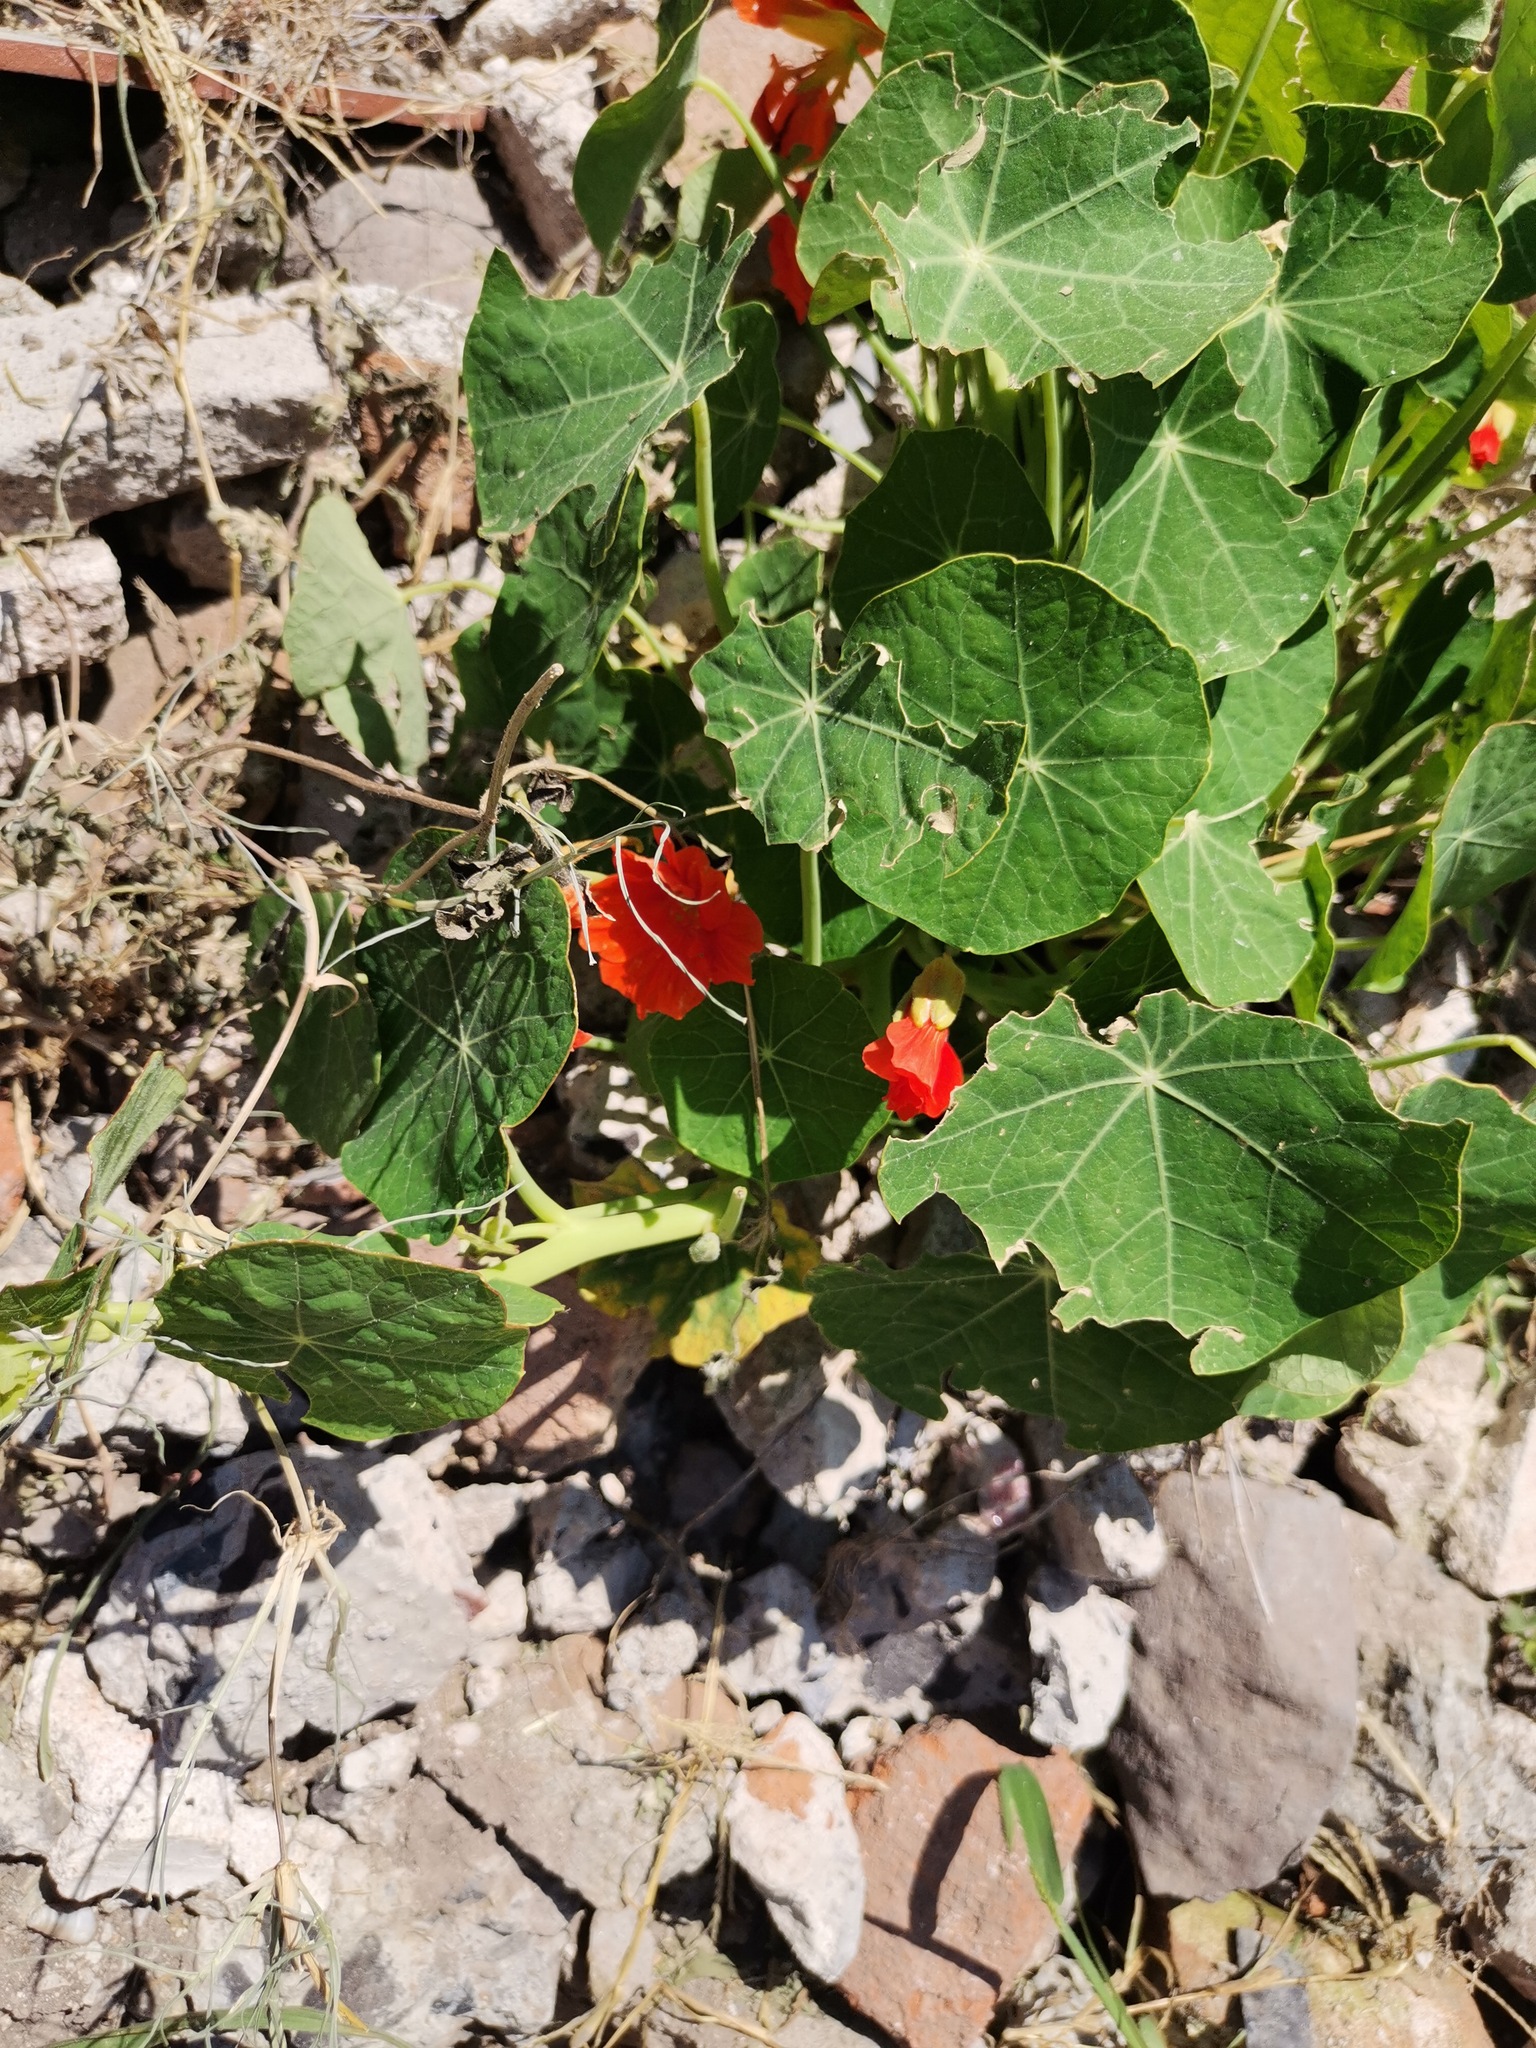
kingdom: Plantae
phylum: Tracheophyta
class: Magnoliopsida
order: Brassicales
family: Tropaeolaceae
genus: Tropaeolum
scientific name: Tropaeolum majus
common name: Nasturtium
